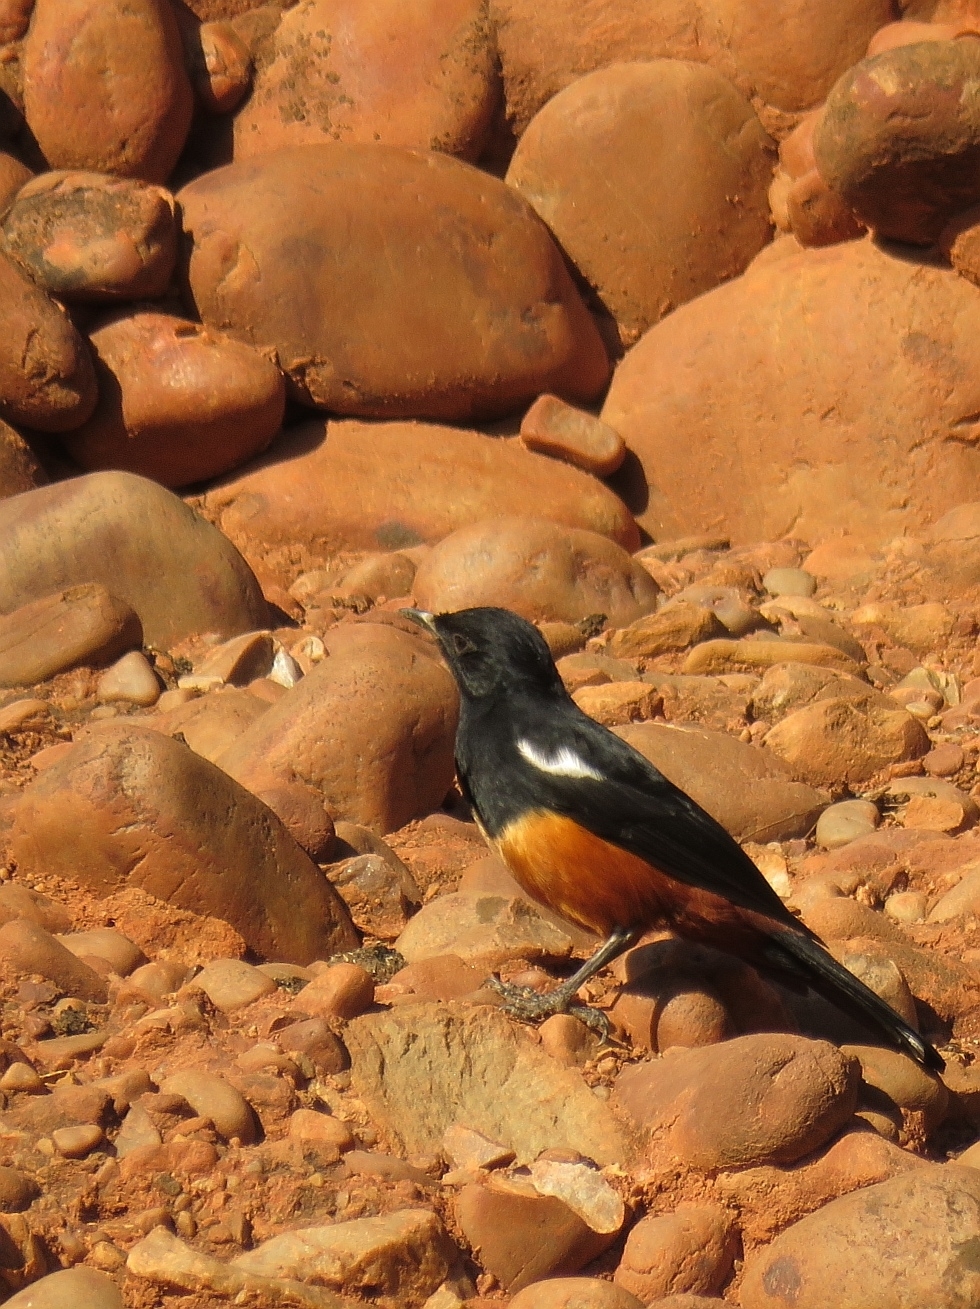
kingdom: Animalia
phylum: Chordata
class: Aves
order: Passeriformes
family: Muscicapidae
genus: Thamnolaea
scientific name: Thamnolaea cinnamomeiventris
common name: Mocking cliff chat
